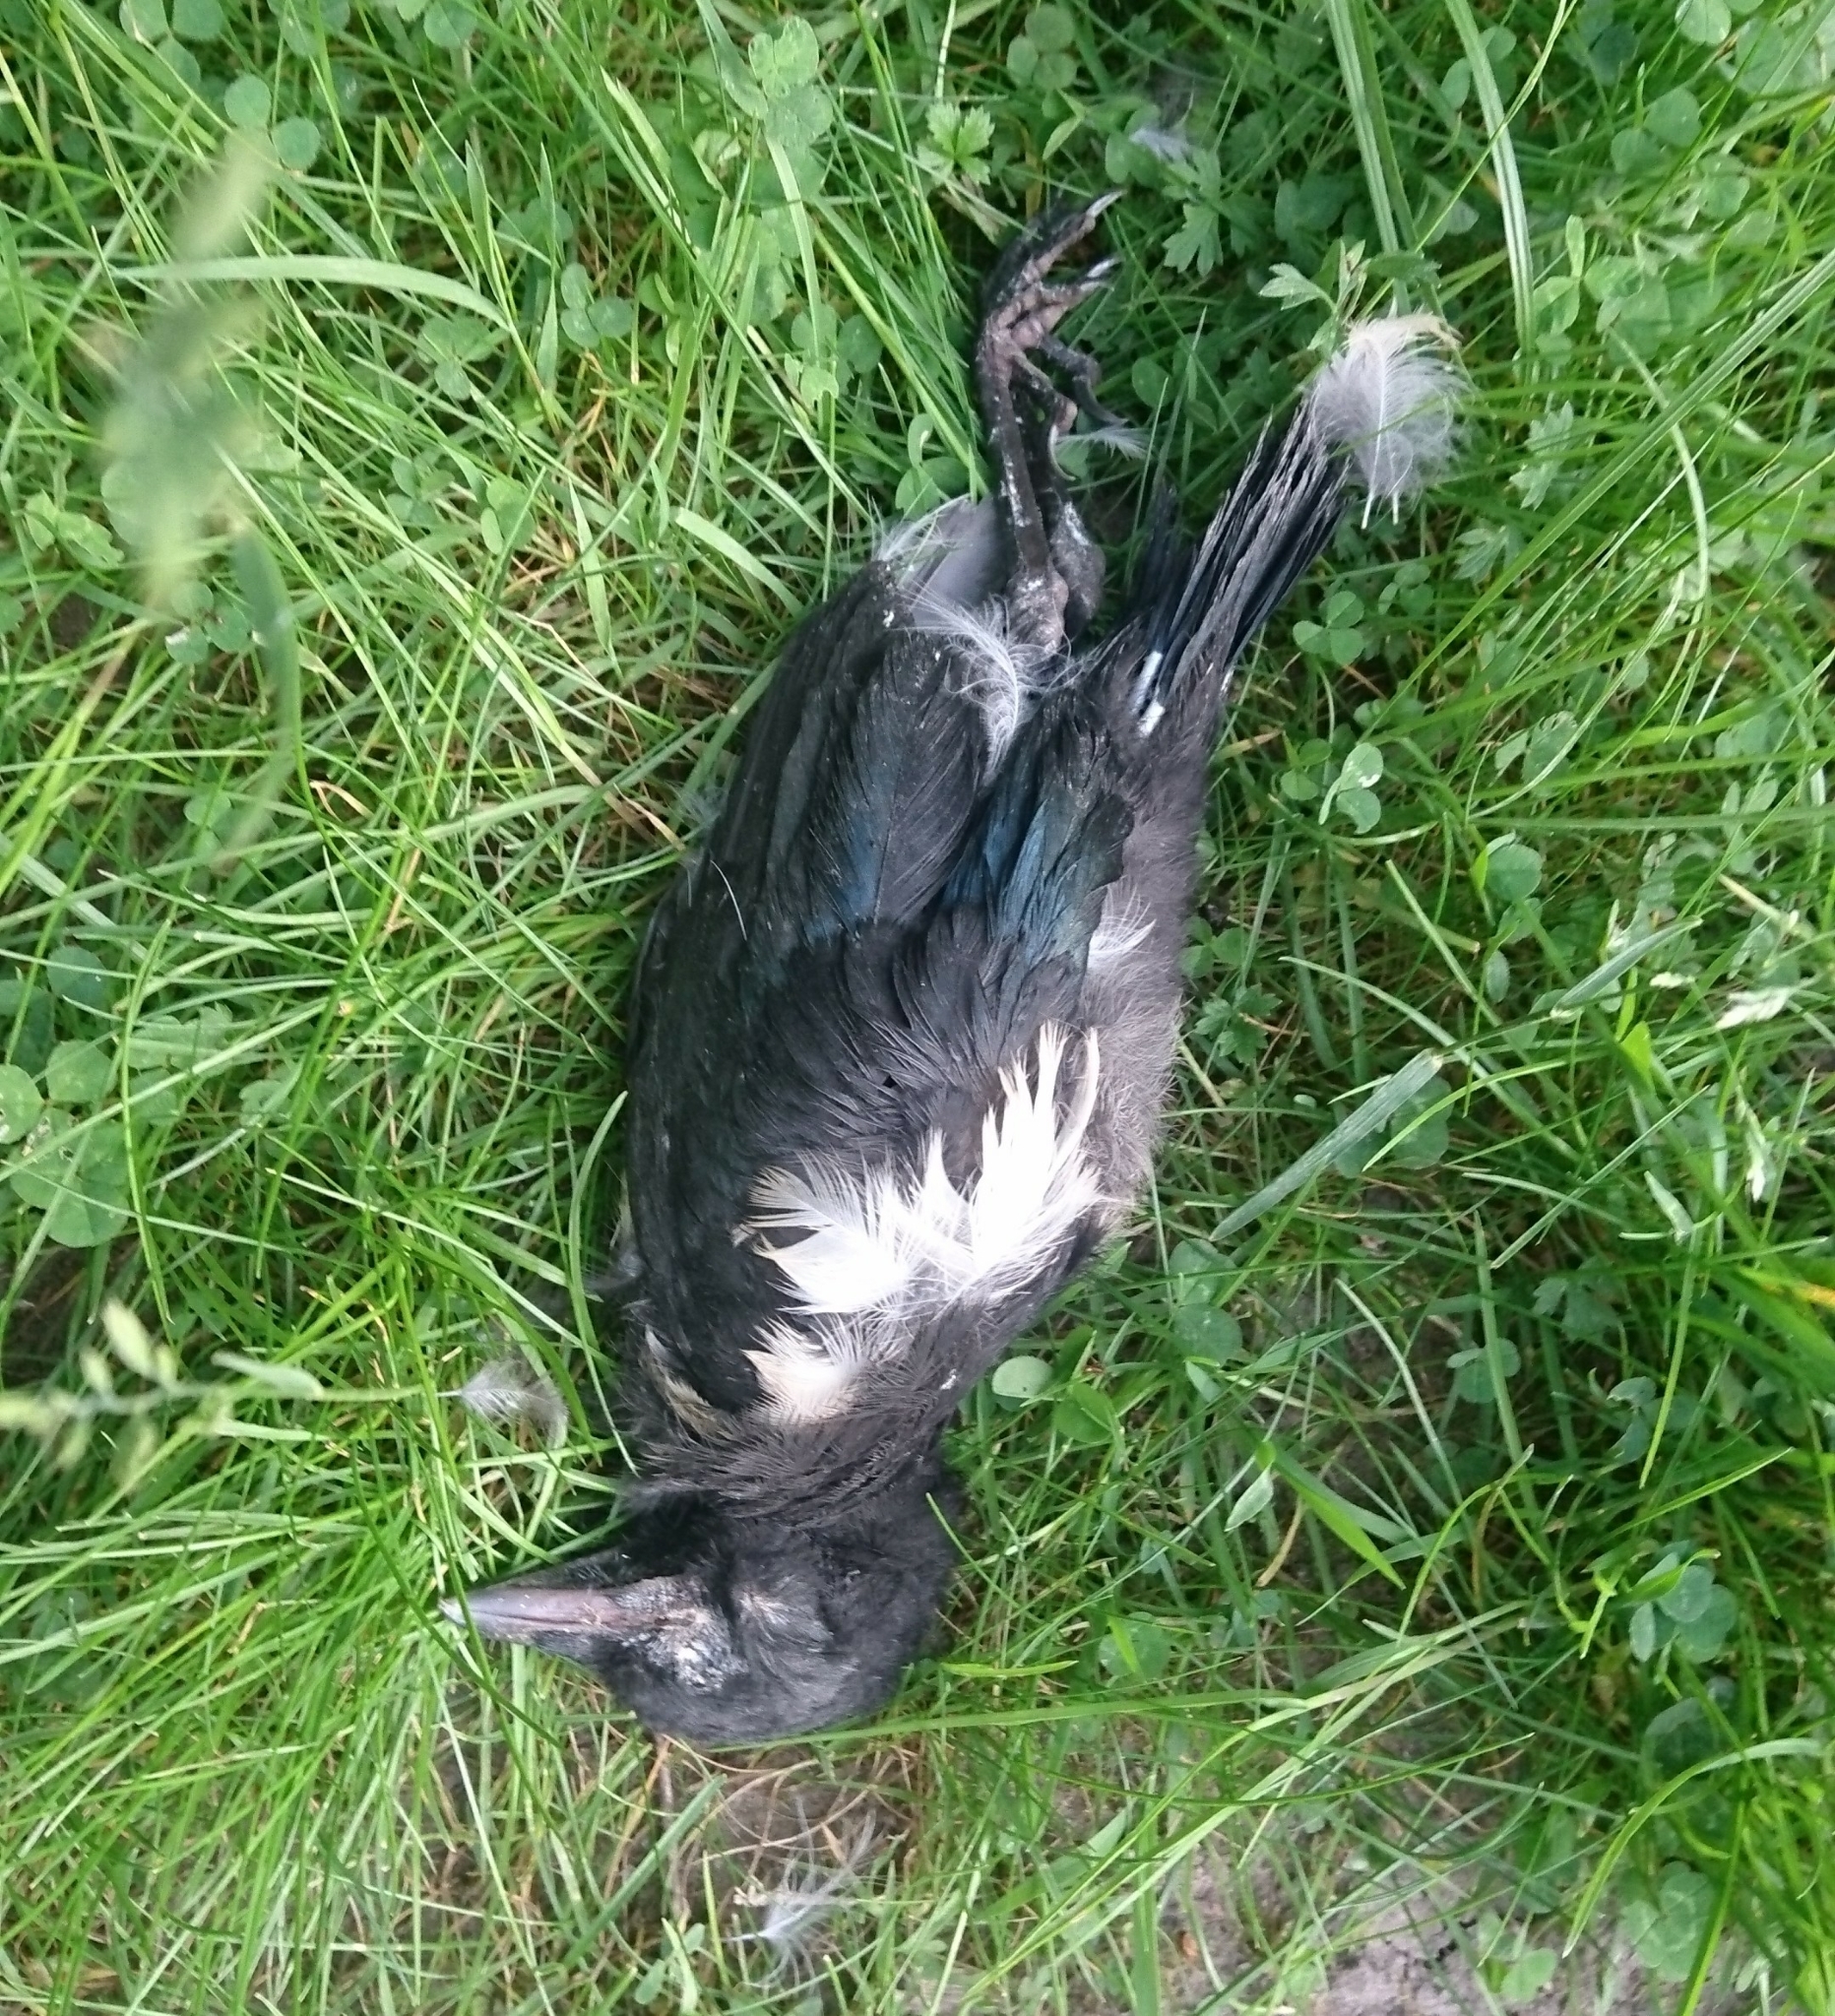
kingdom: Animalia
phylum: Chordata
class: Aves
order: Passeriformes
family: Corvidae
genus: Pica
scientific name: Pica pica
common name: Eurasian magpie
